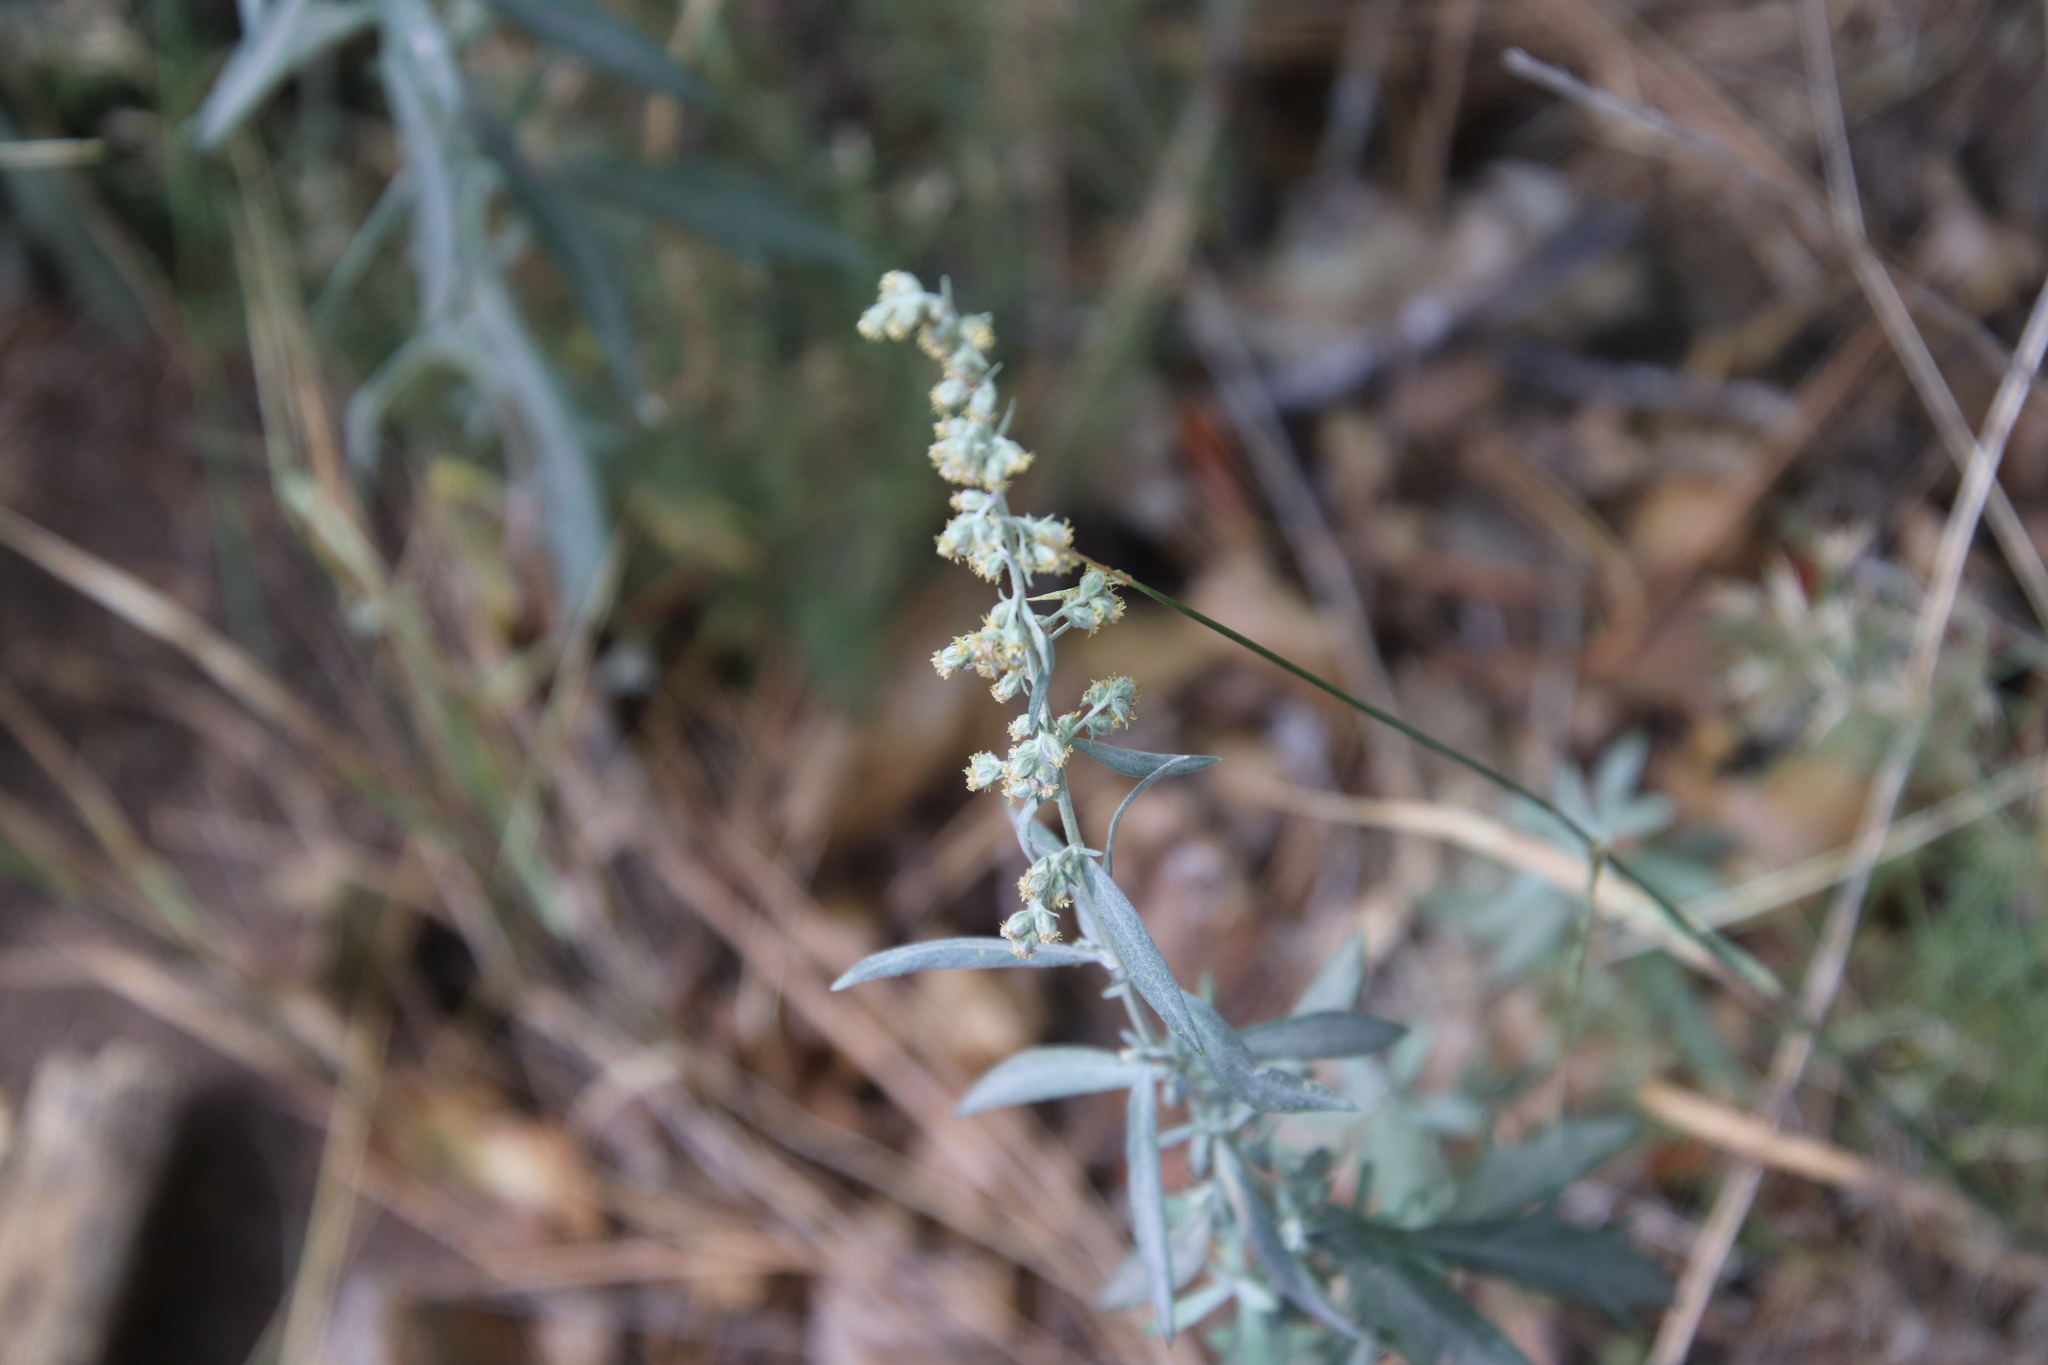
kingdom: Plantae
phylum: Tracheophyta
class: Magnoliopsida
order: Asterales
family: Asteraceae
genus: Artemisia
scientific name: Artemisia ludoviciana
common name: Western mugwort
